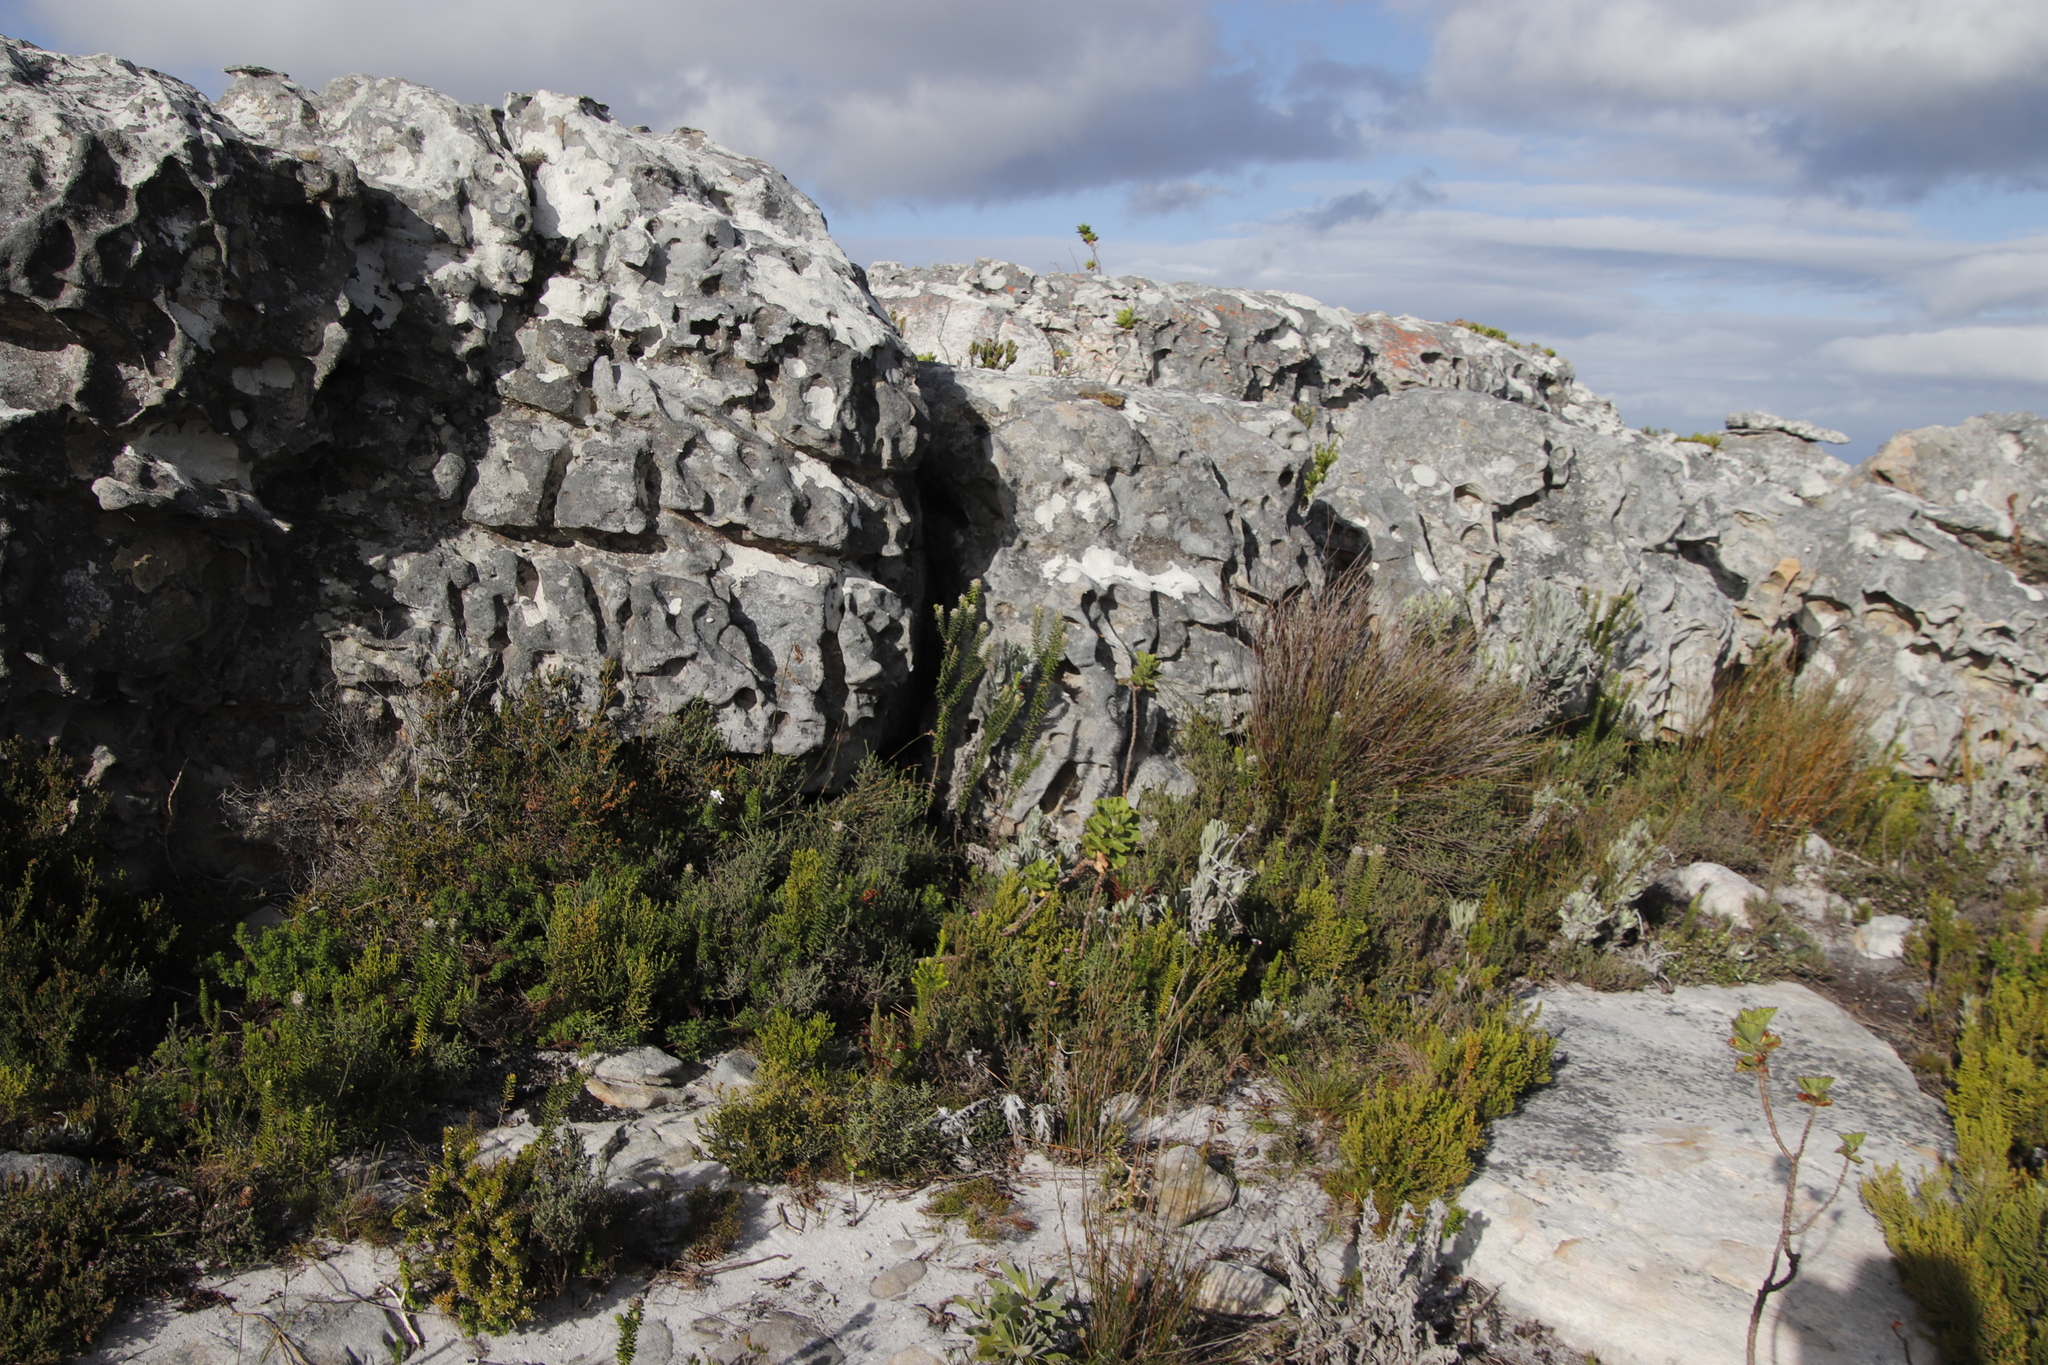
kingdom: Plantae
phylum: Tracheophyta
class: Magnoliopsida
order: Geraniales
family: Geraniaceae
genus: Pelargonium
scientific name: Pelargonium cucullatum
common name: Tree pelargonium
